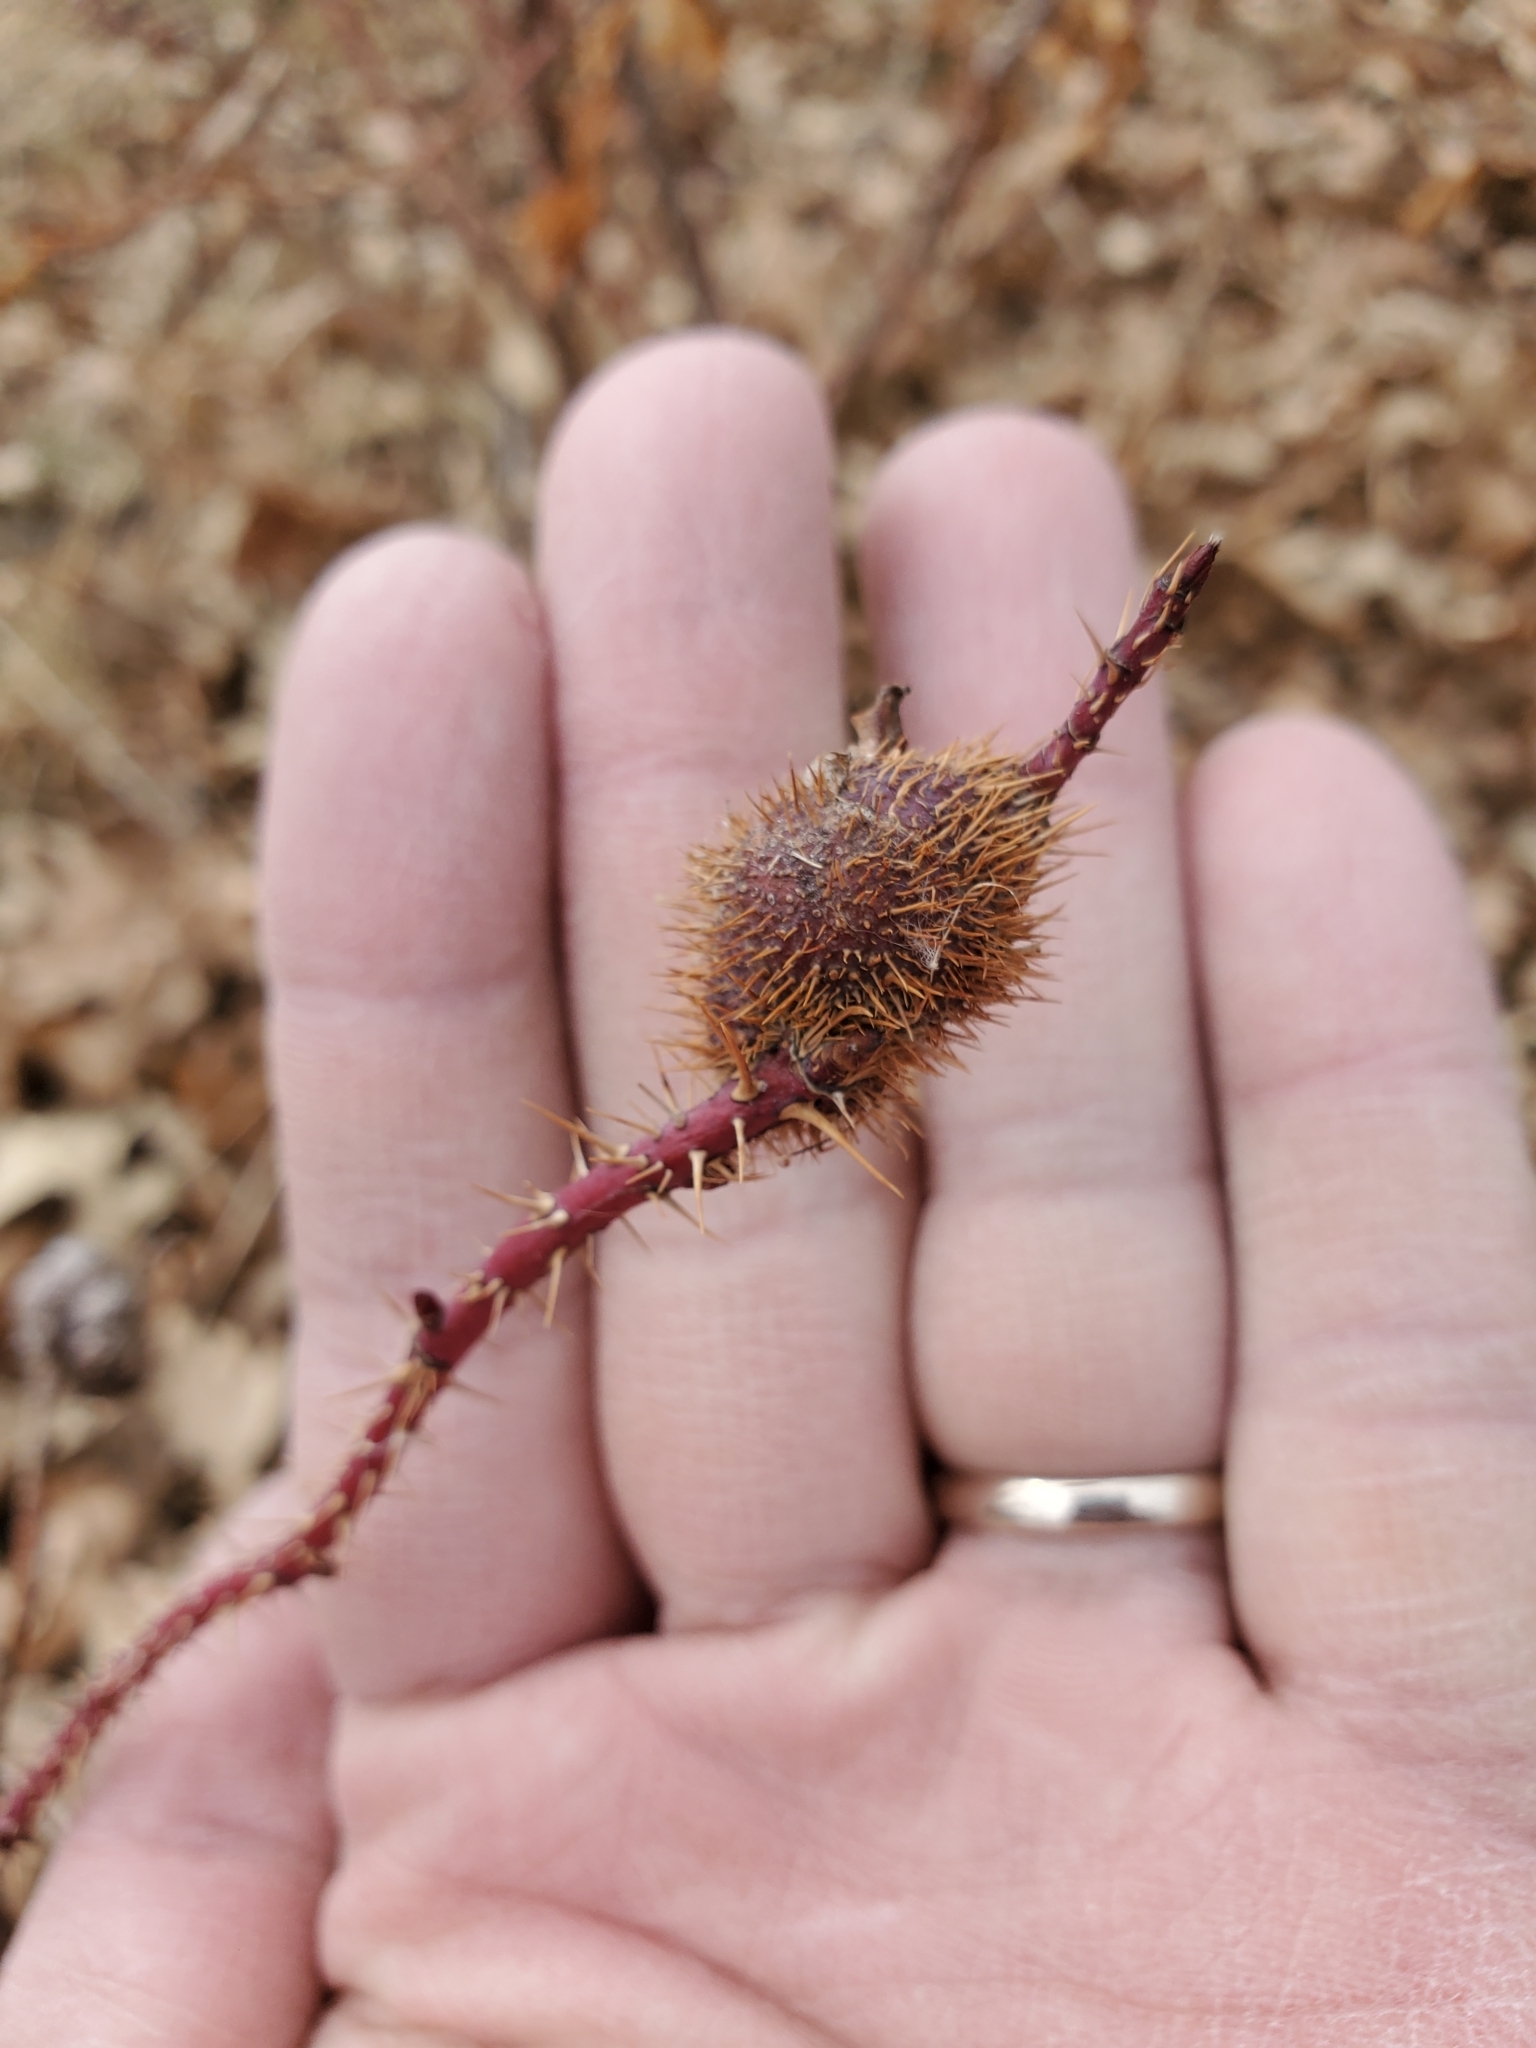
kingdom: Animalia
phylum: Arthropoda
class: Insecta
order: Hymenoptera
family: Cynipidae
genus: Diplolepis
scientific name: Diplolepis spinosa
